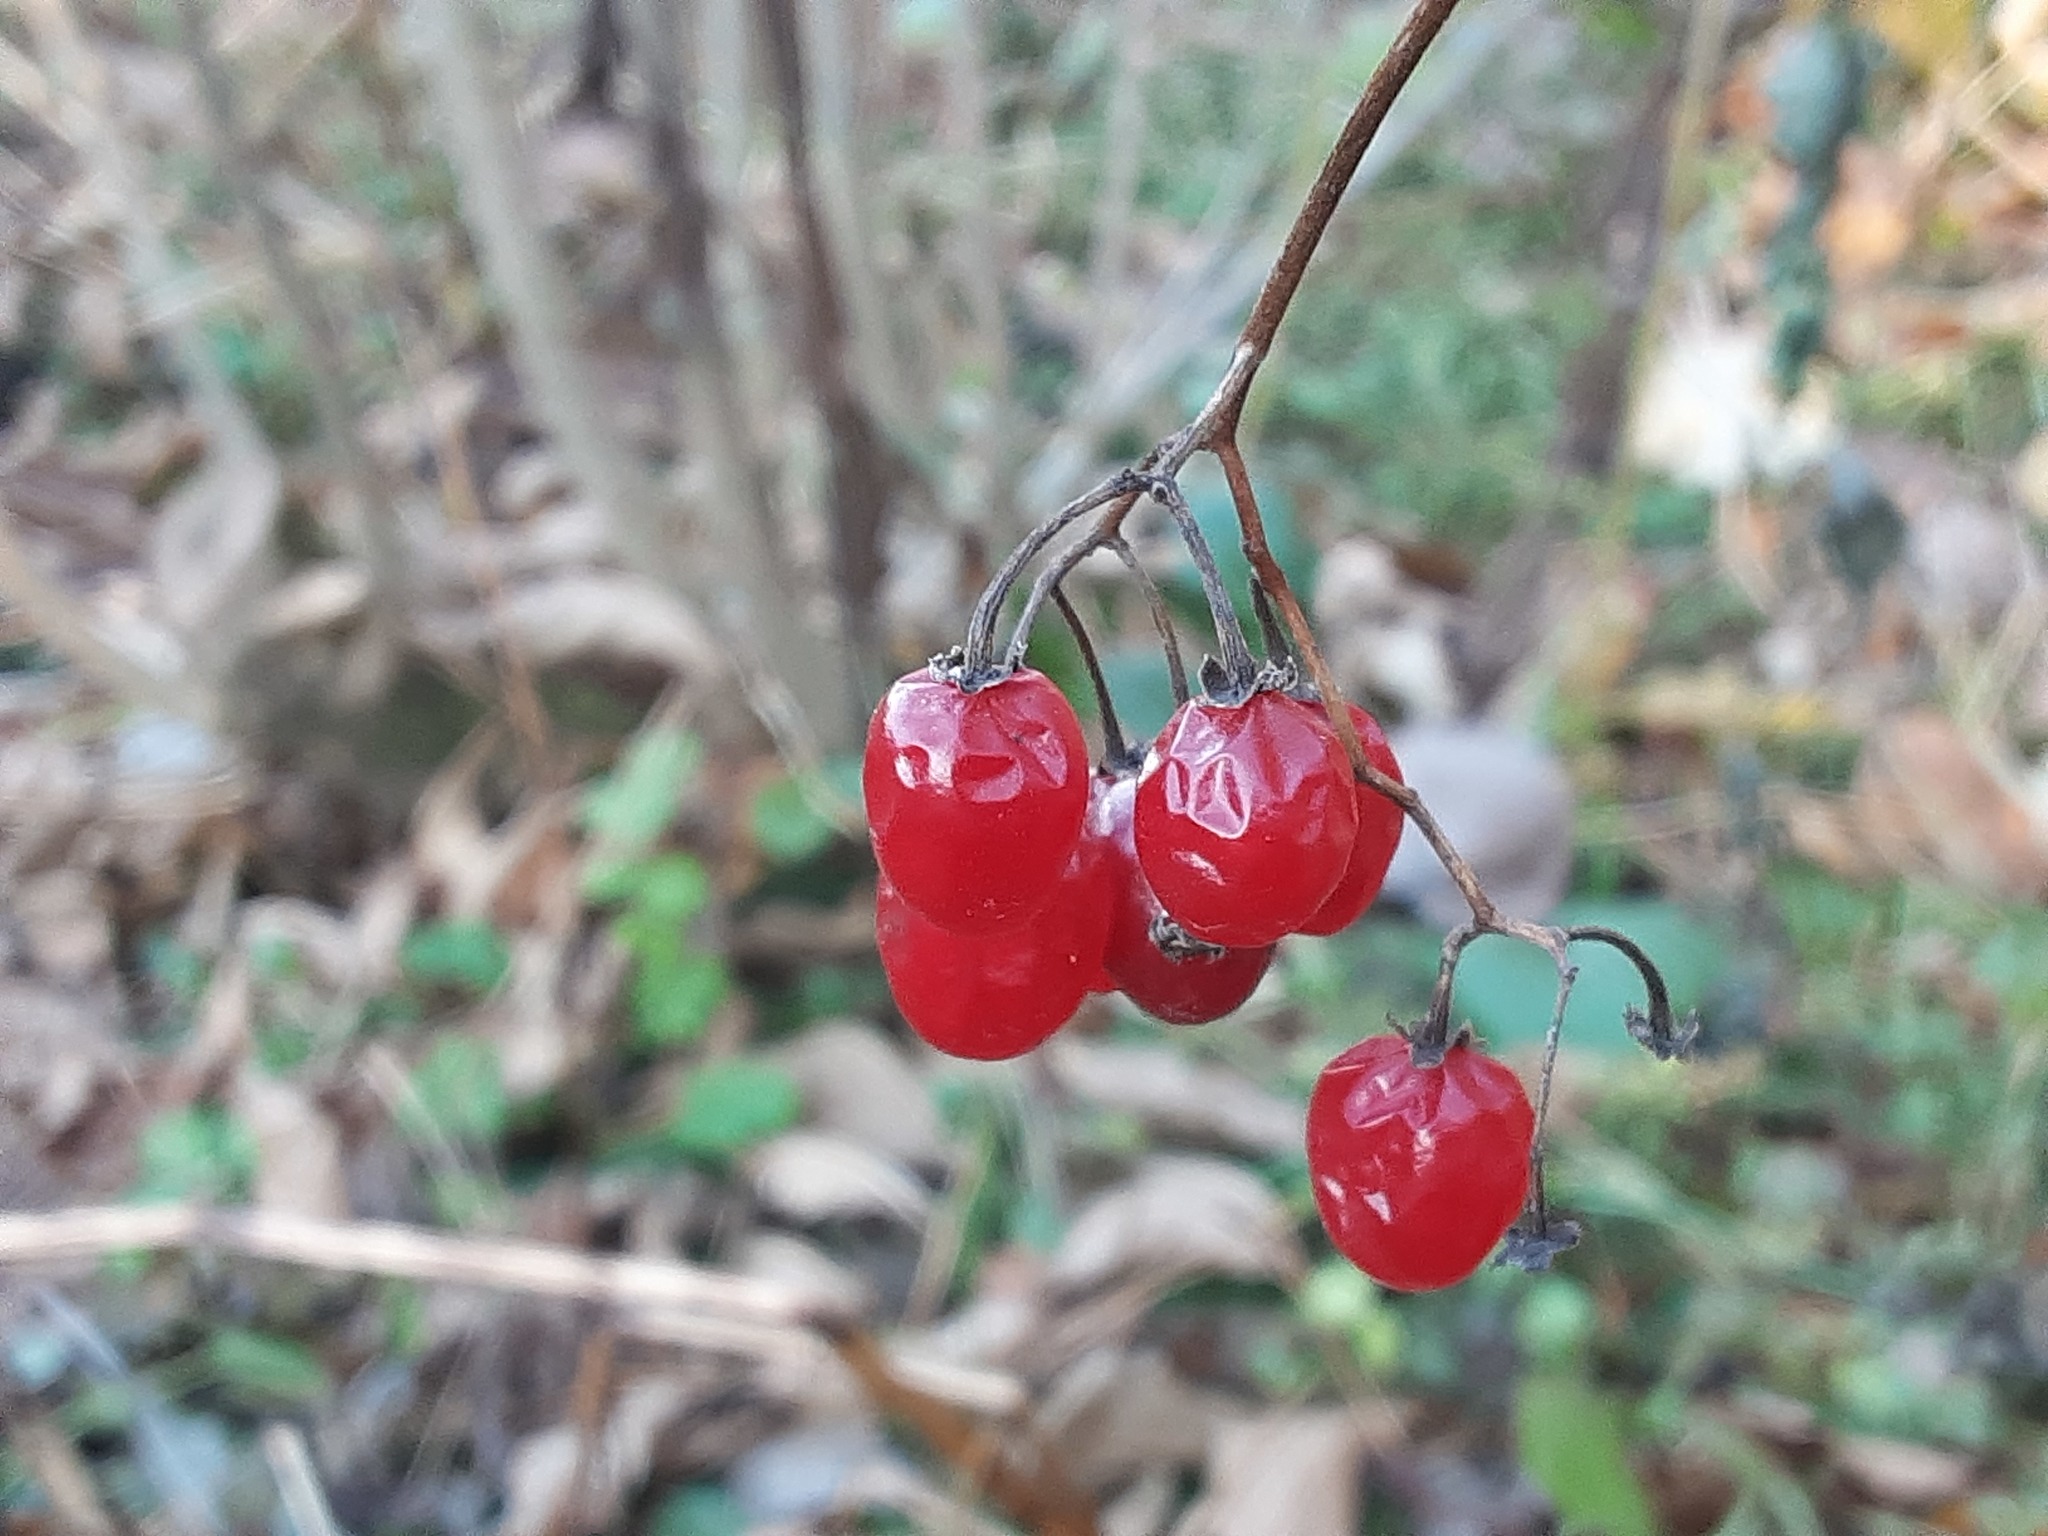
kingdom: Plantae
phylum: Tracheophyta
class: Magnoliopsida
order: Solanales
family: Solanaceae
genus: Solanum
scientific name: Solanum dulcamara
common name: Climbing nightshade
